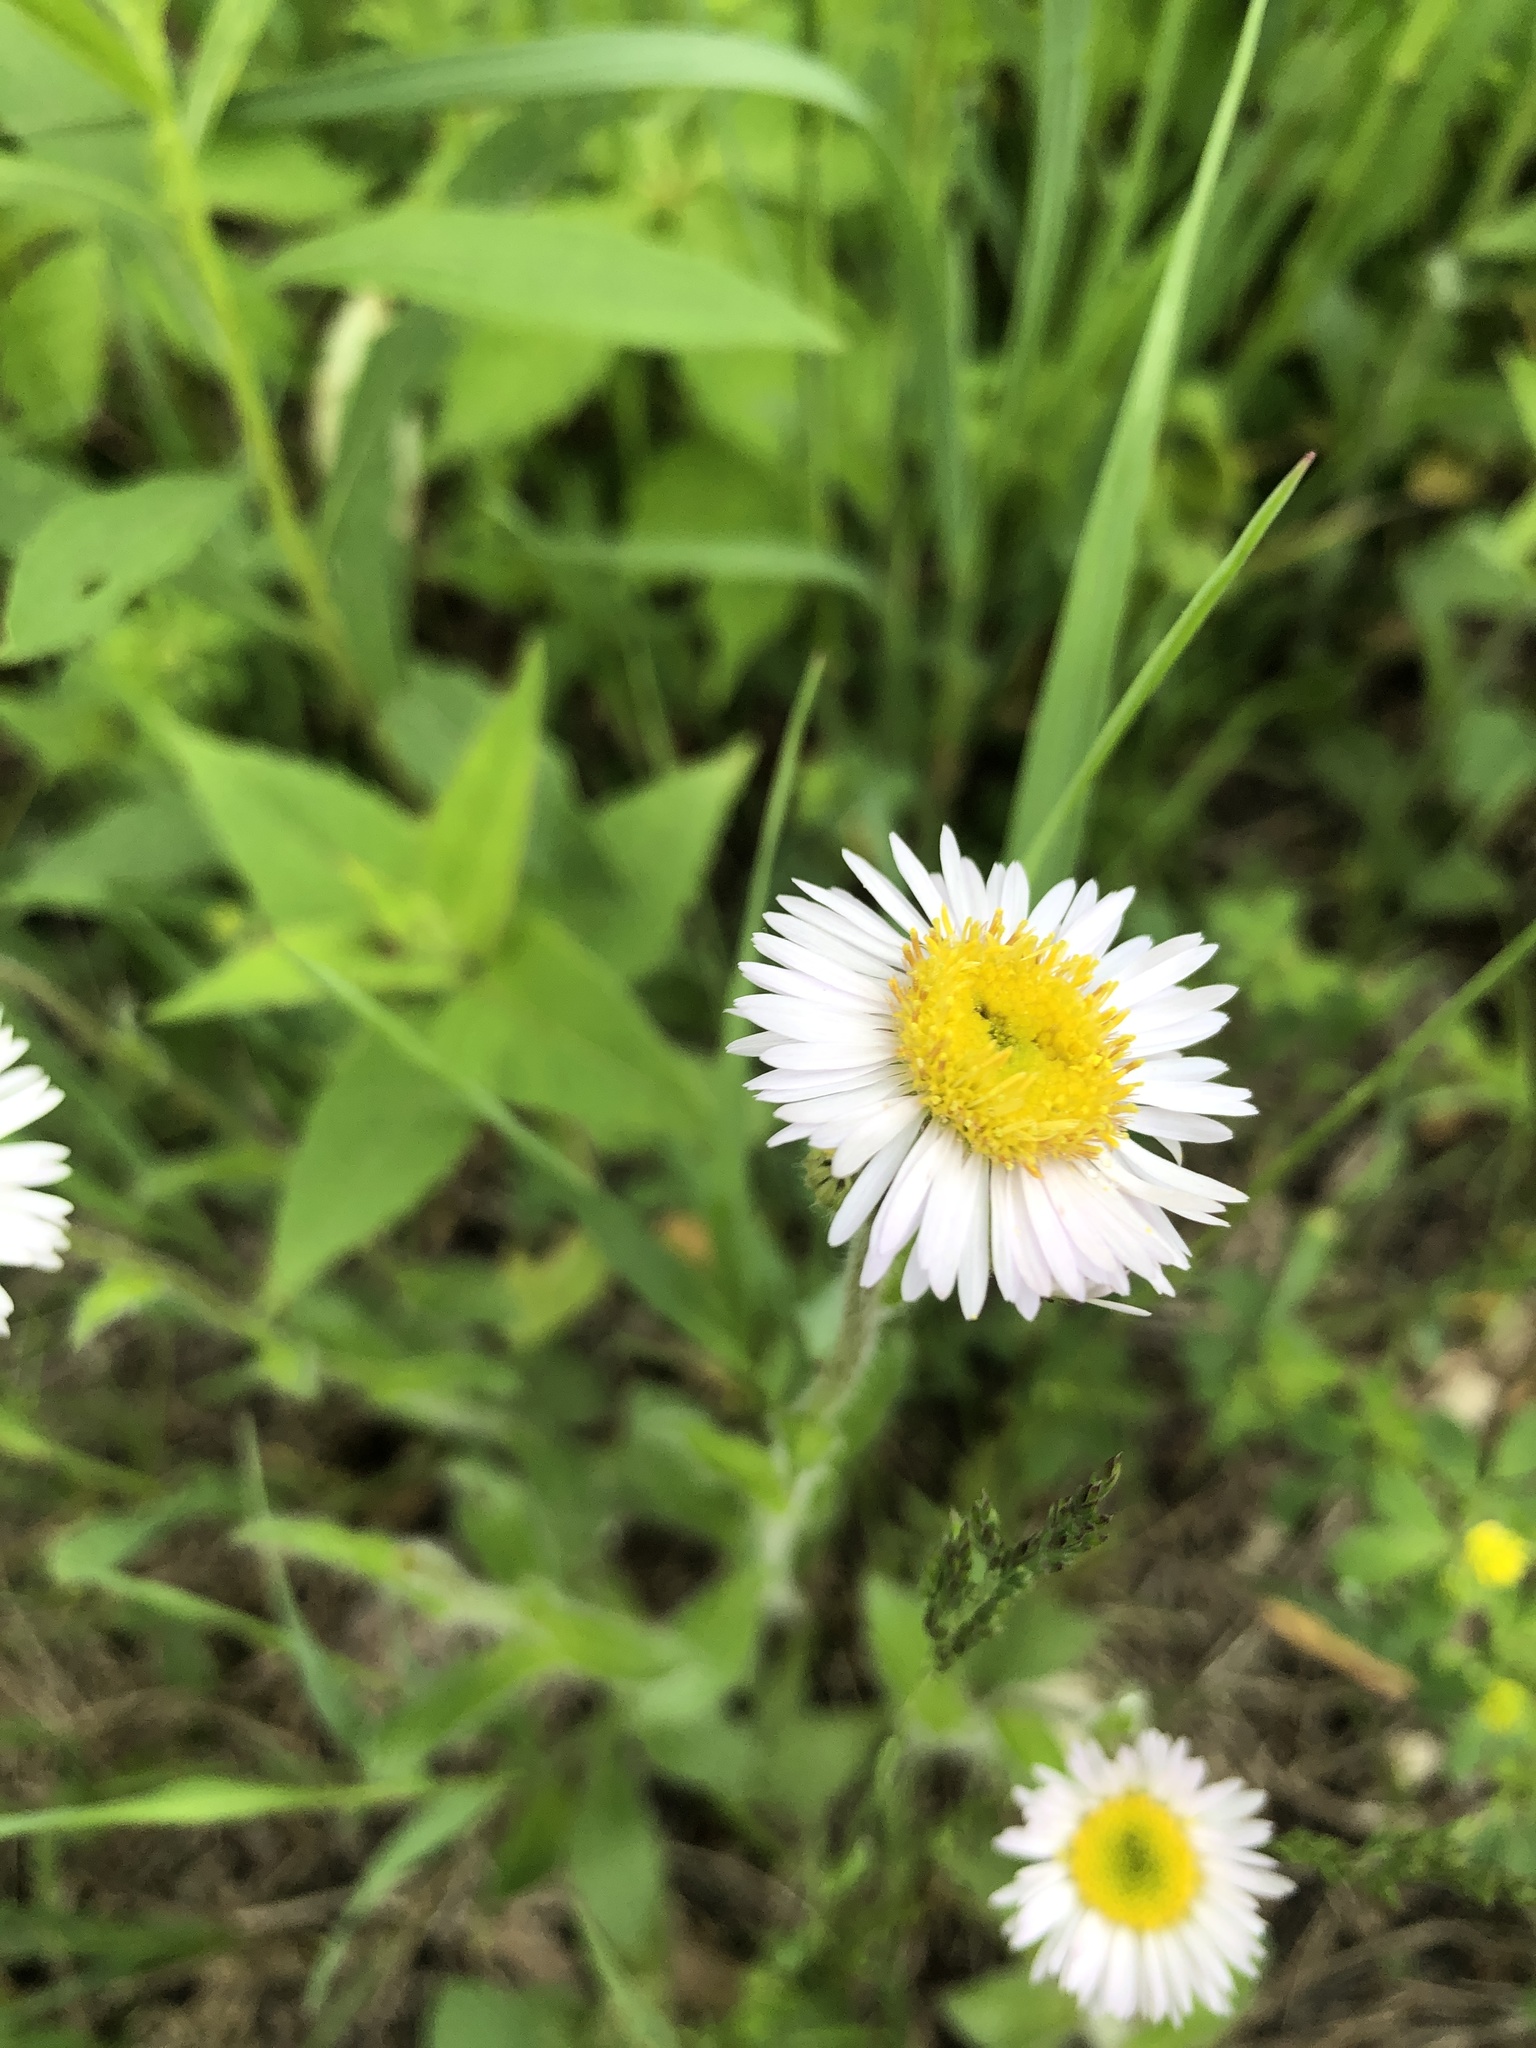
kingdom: Plantae
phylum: Tracheophyta
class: Magnoliopsida
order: Asterales
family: Asteraceae
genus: Erigeron
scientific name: Erigeron pulchellus
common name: Hairy fleabane
